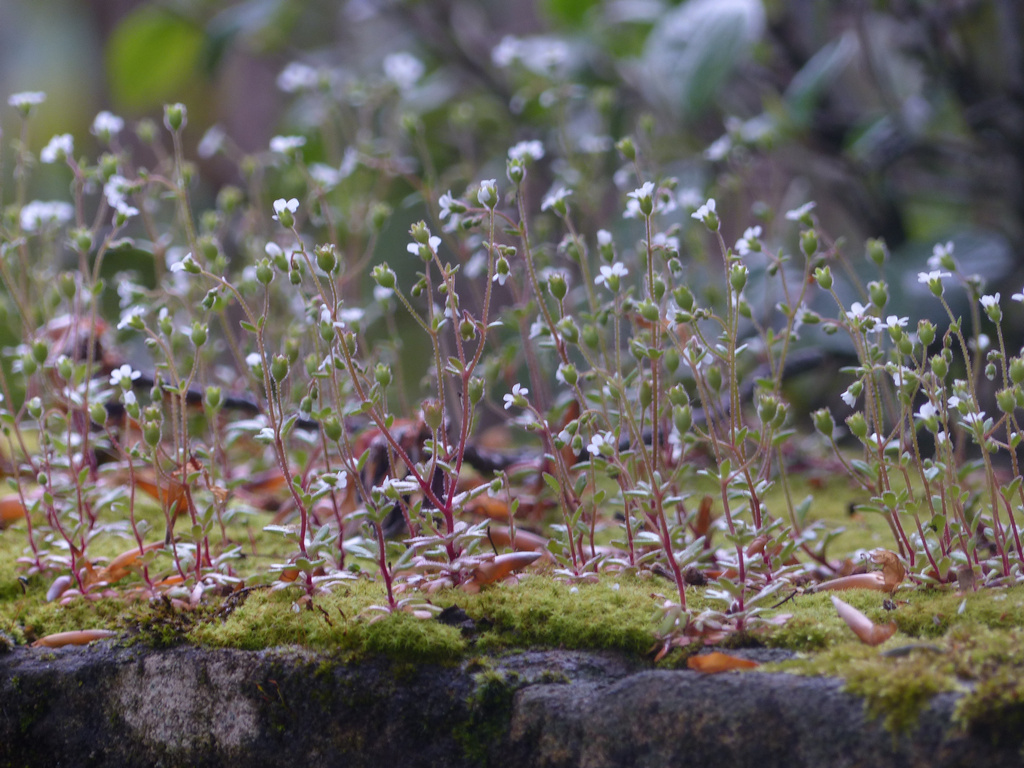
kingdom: Plantae
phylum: Tracheophyta
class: Magnoliopsida
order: Saxifragales
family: Saxifragaceae
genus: Saxifraga
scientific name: Saxifraga tridactylites
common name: Rue-leaved saxifrage
